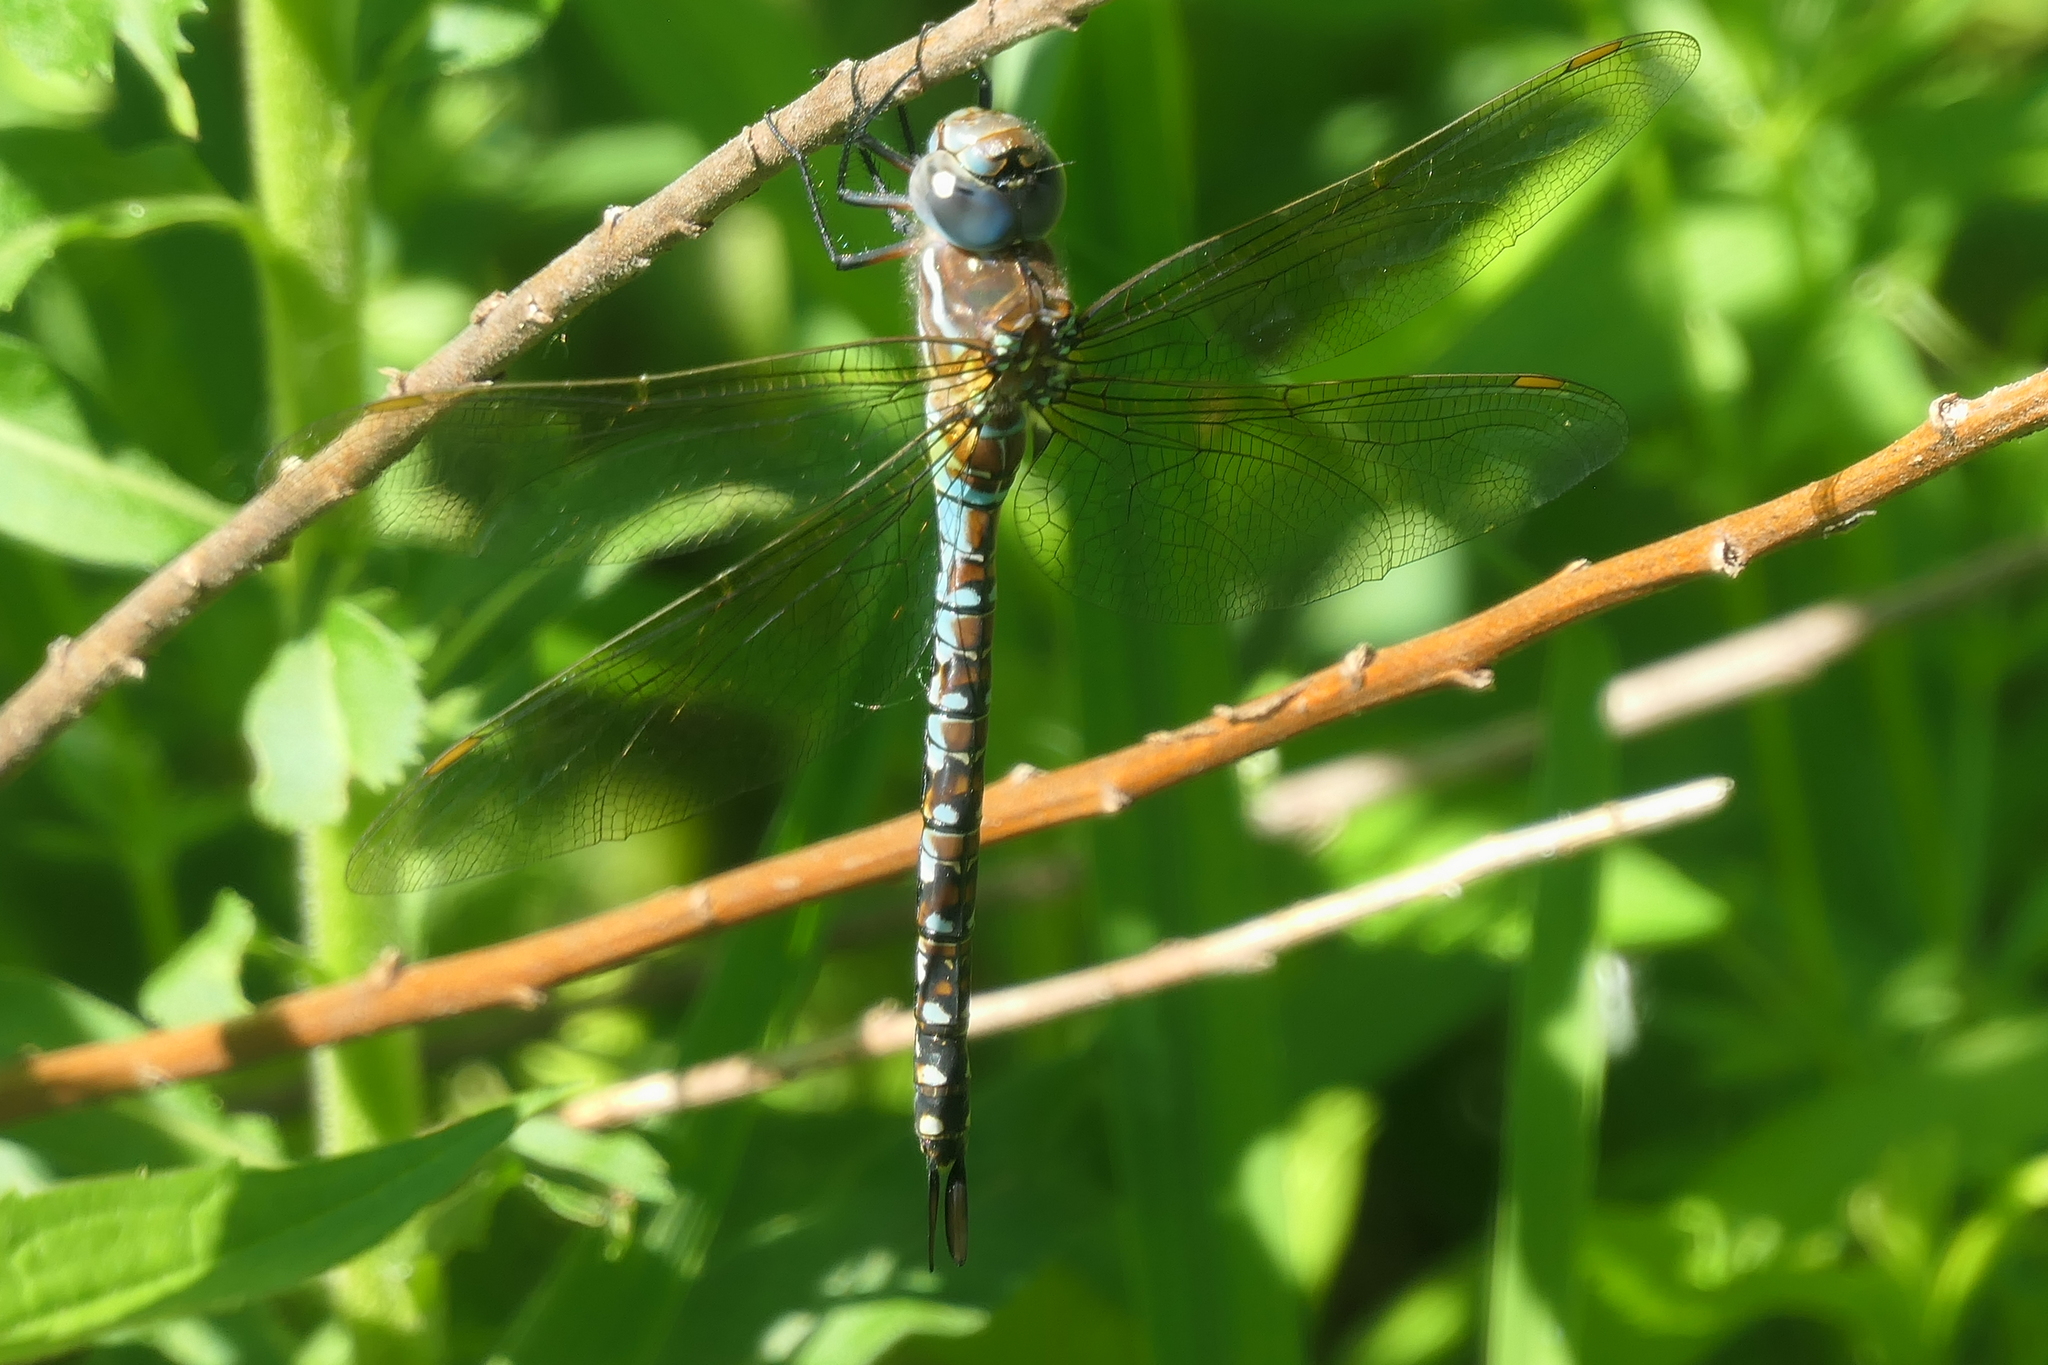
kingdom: Animalia
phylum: Arthropoda
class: Insecta
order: Odonata
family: Aeshnidae
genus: Rhionaeschna
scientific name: Rhionaeschna mutata
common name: Spatterdock darner
